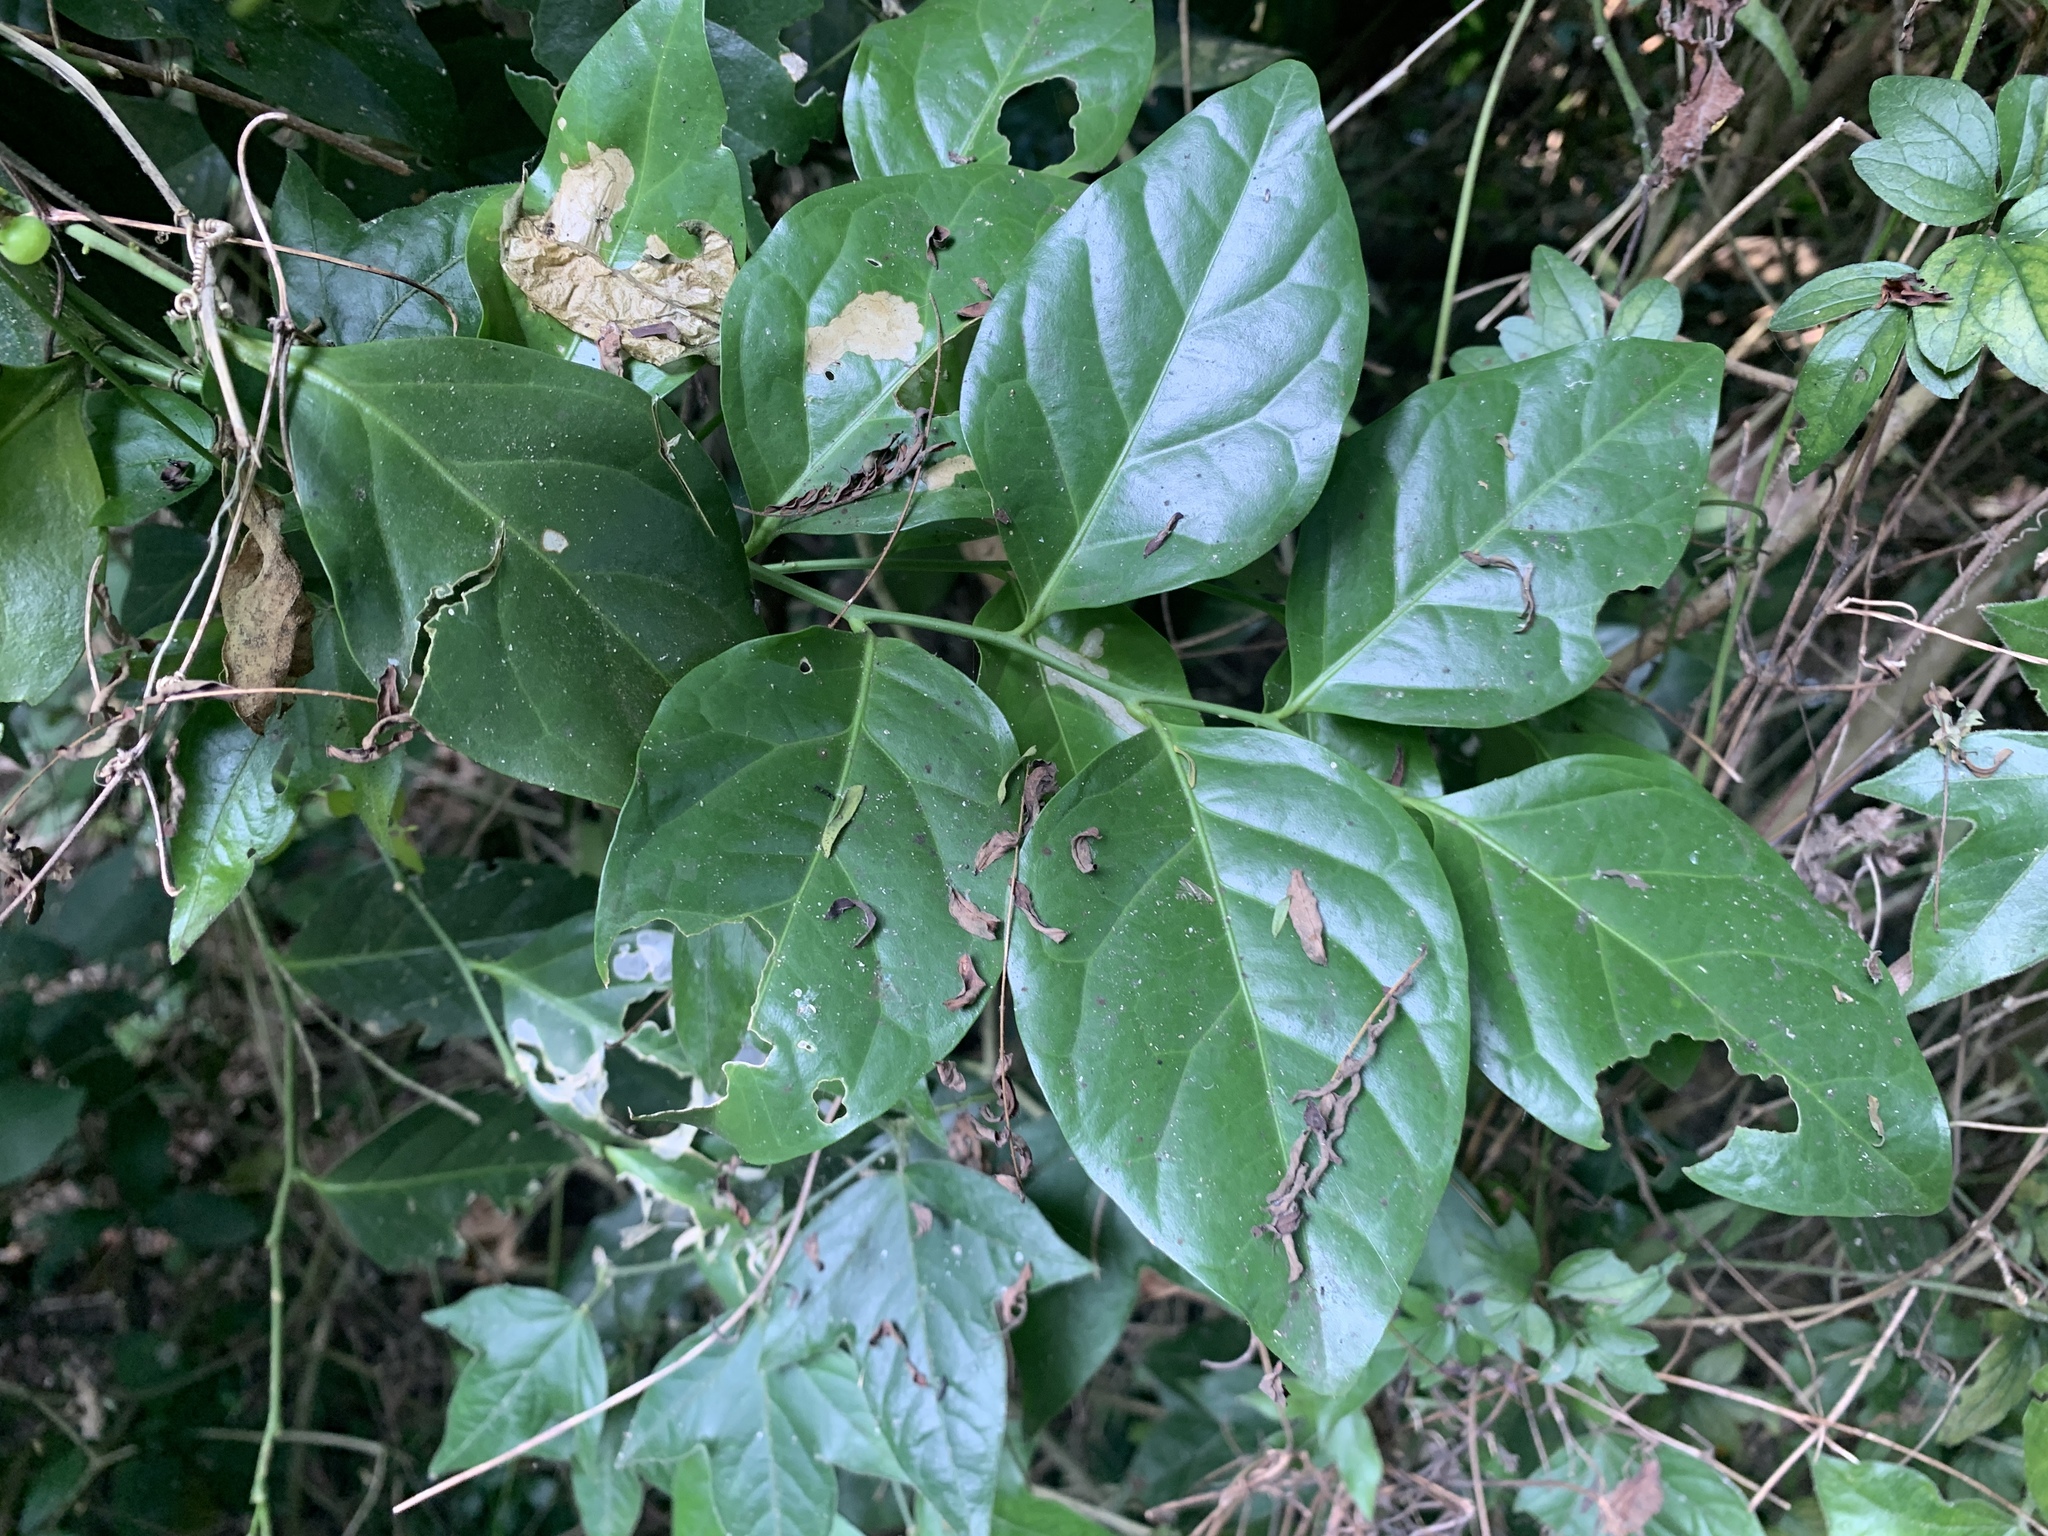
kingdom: Plantae
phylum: Tracheophyta
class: Magnoliopsida
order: Santalales
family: Opiliaceae
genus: Champereia
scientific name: Champereia manillana
